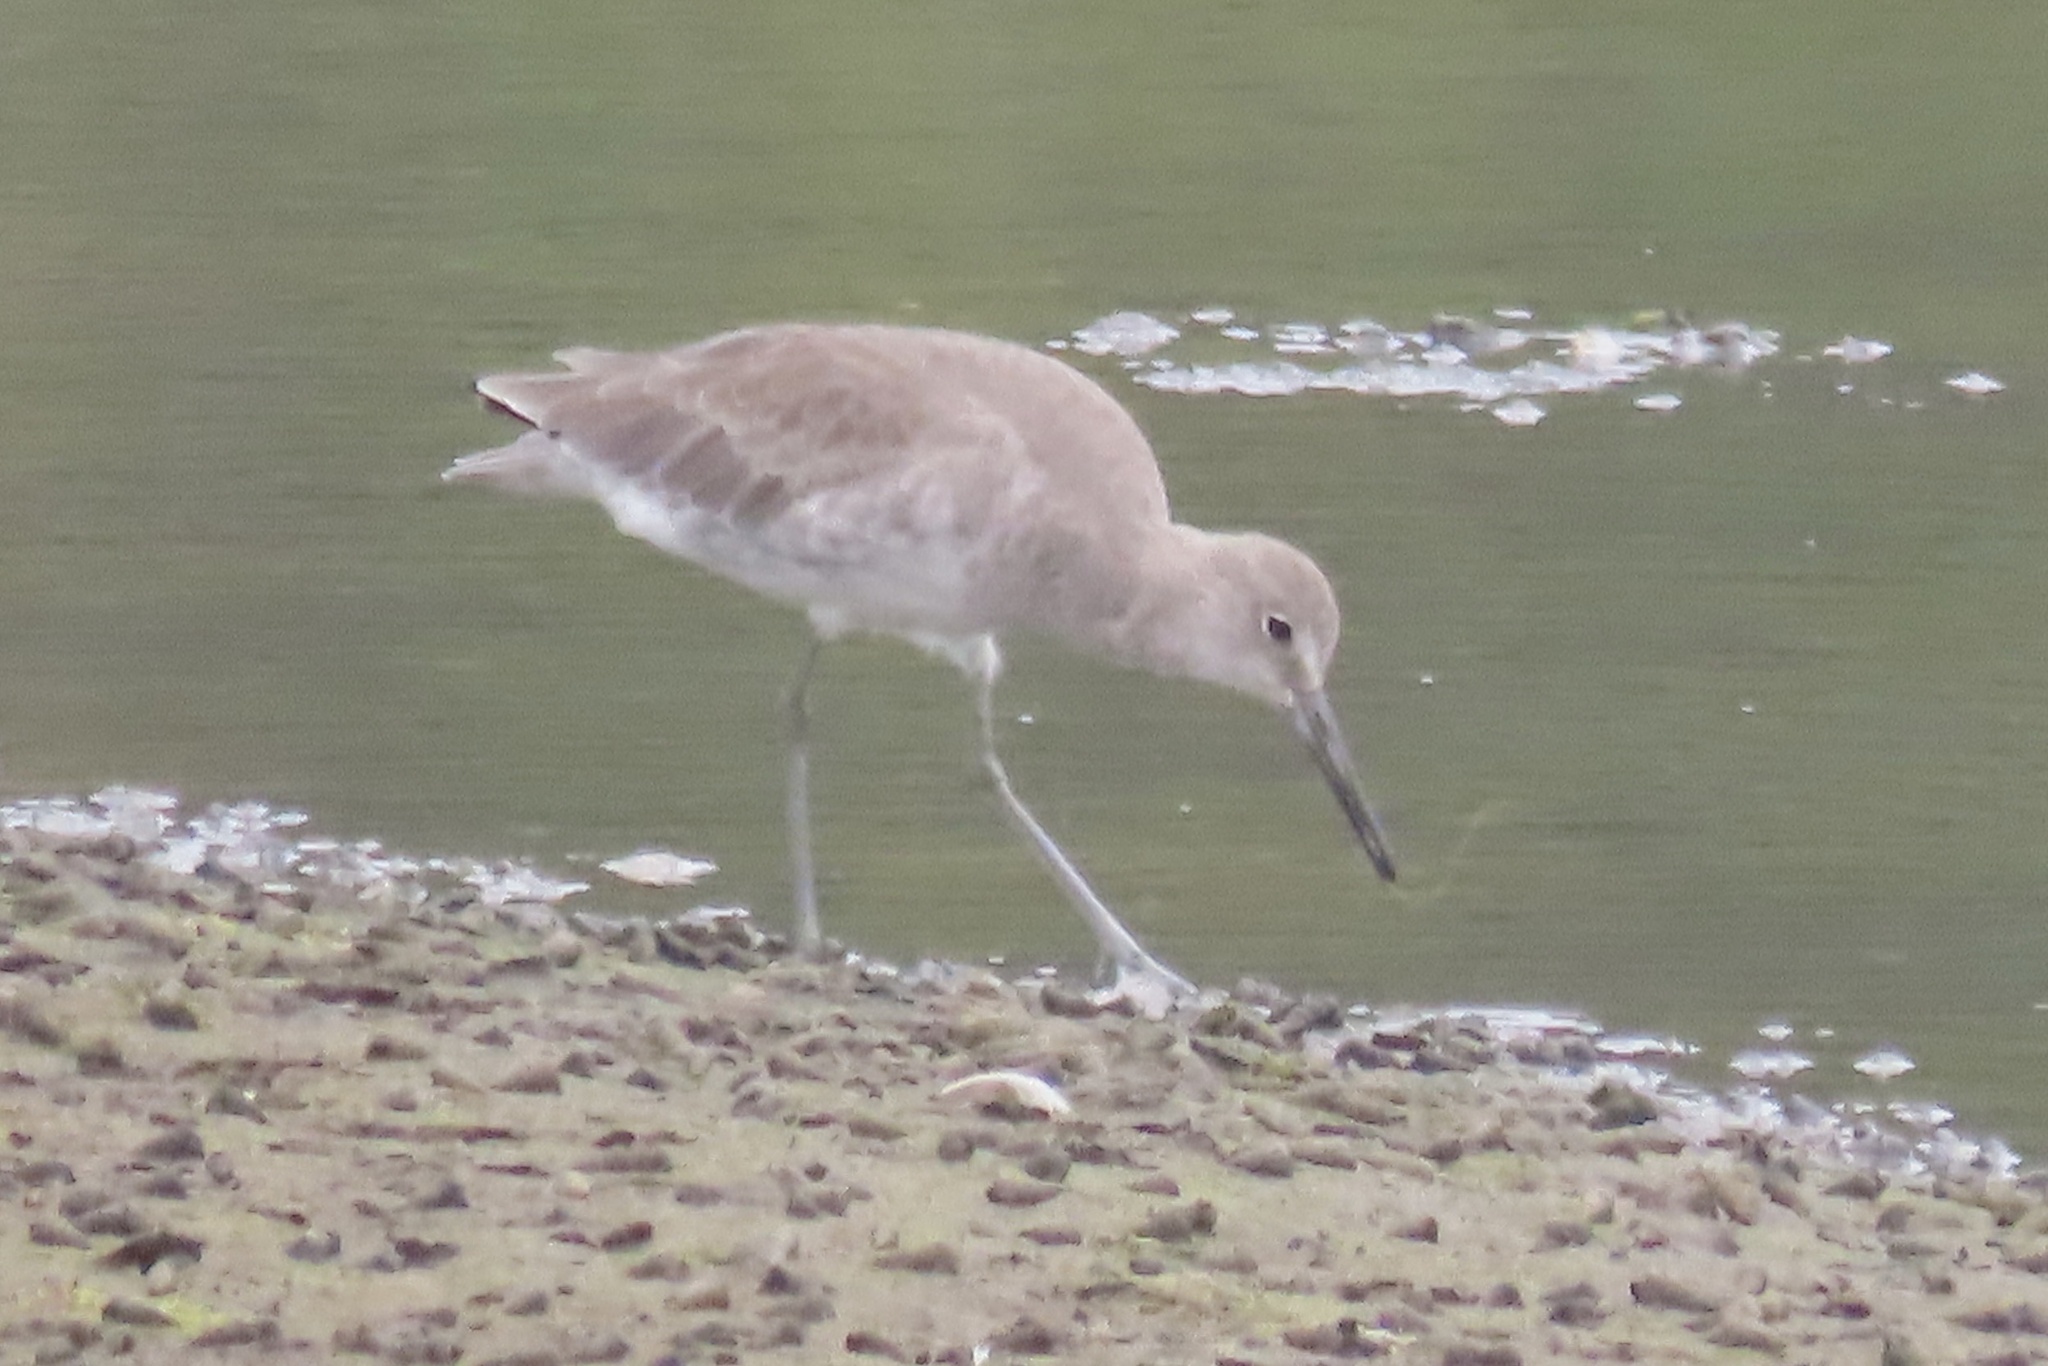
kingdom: Animalia
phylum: Chordata
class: Aves
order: Charadriiformes
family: Scolopacidae
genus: Tringa
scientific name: Tringa semipalmata
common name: Willet
